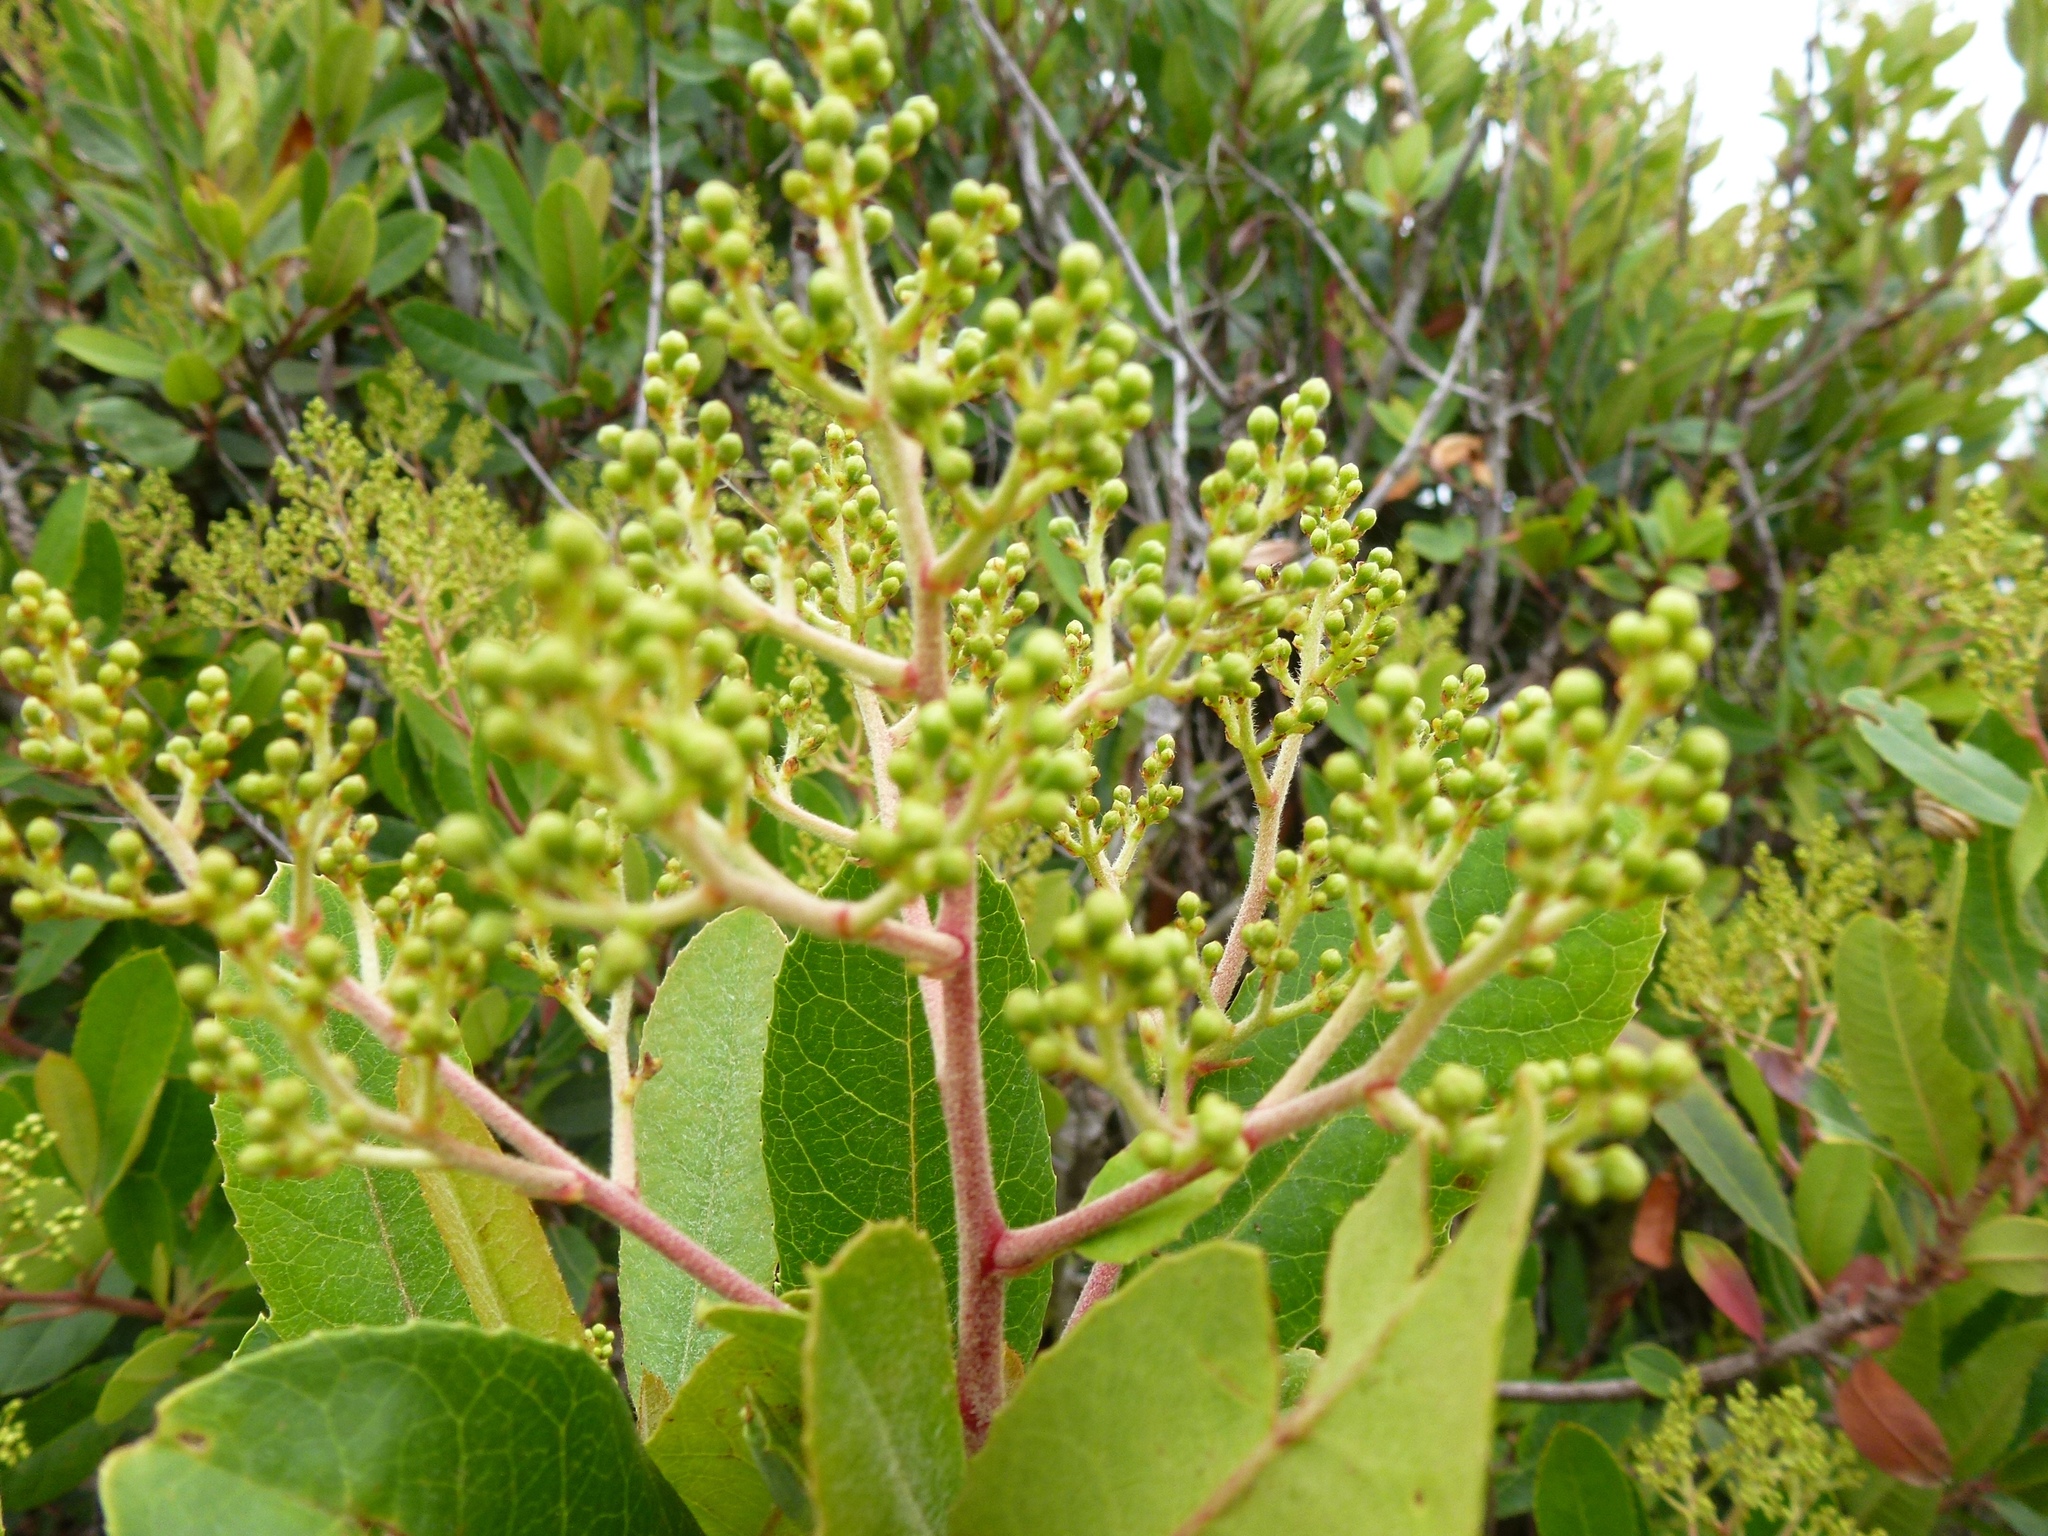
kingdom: Plantae
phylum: Tracheophyta
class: Magnoliopsida
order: Rosales
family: Rosaceae
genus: Heteromeles
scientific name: Heteromeles arbutifolia
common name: California-holly
